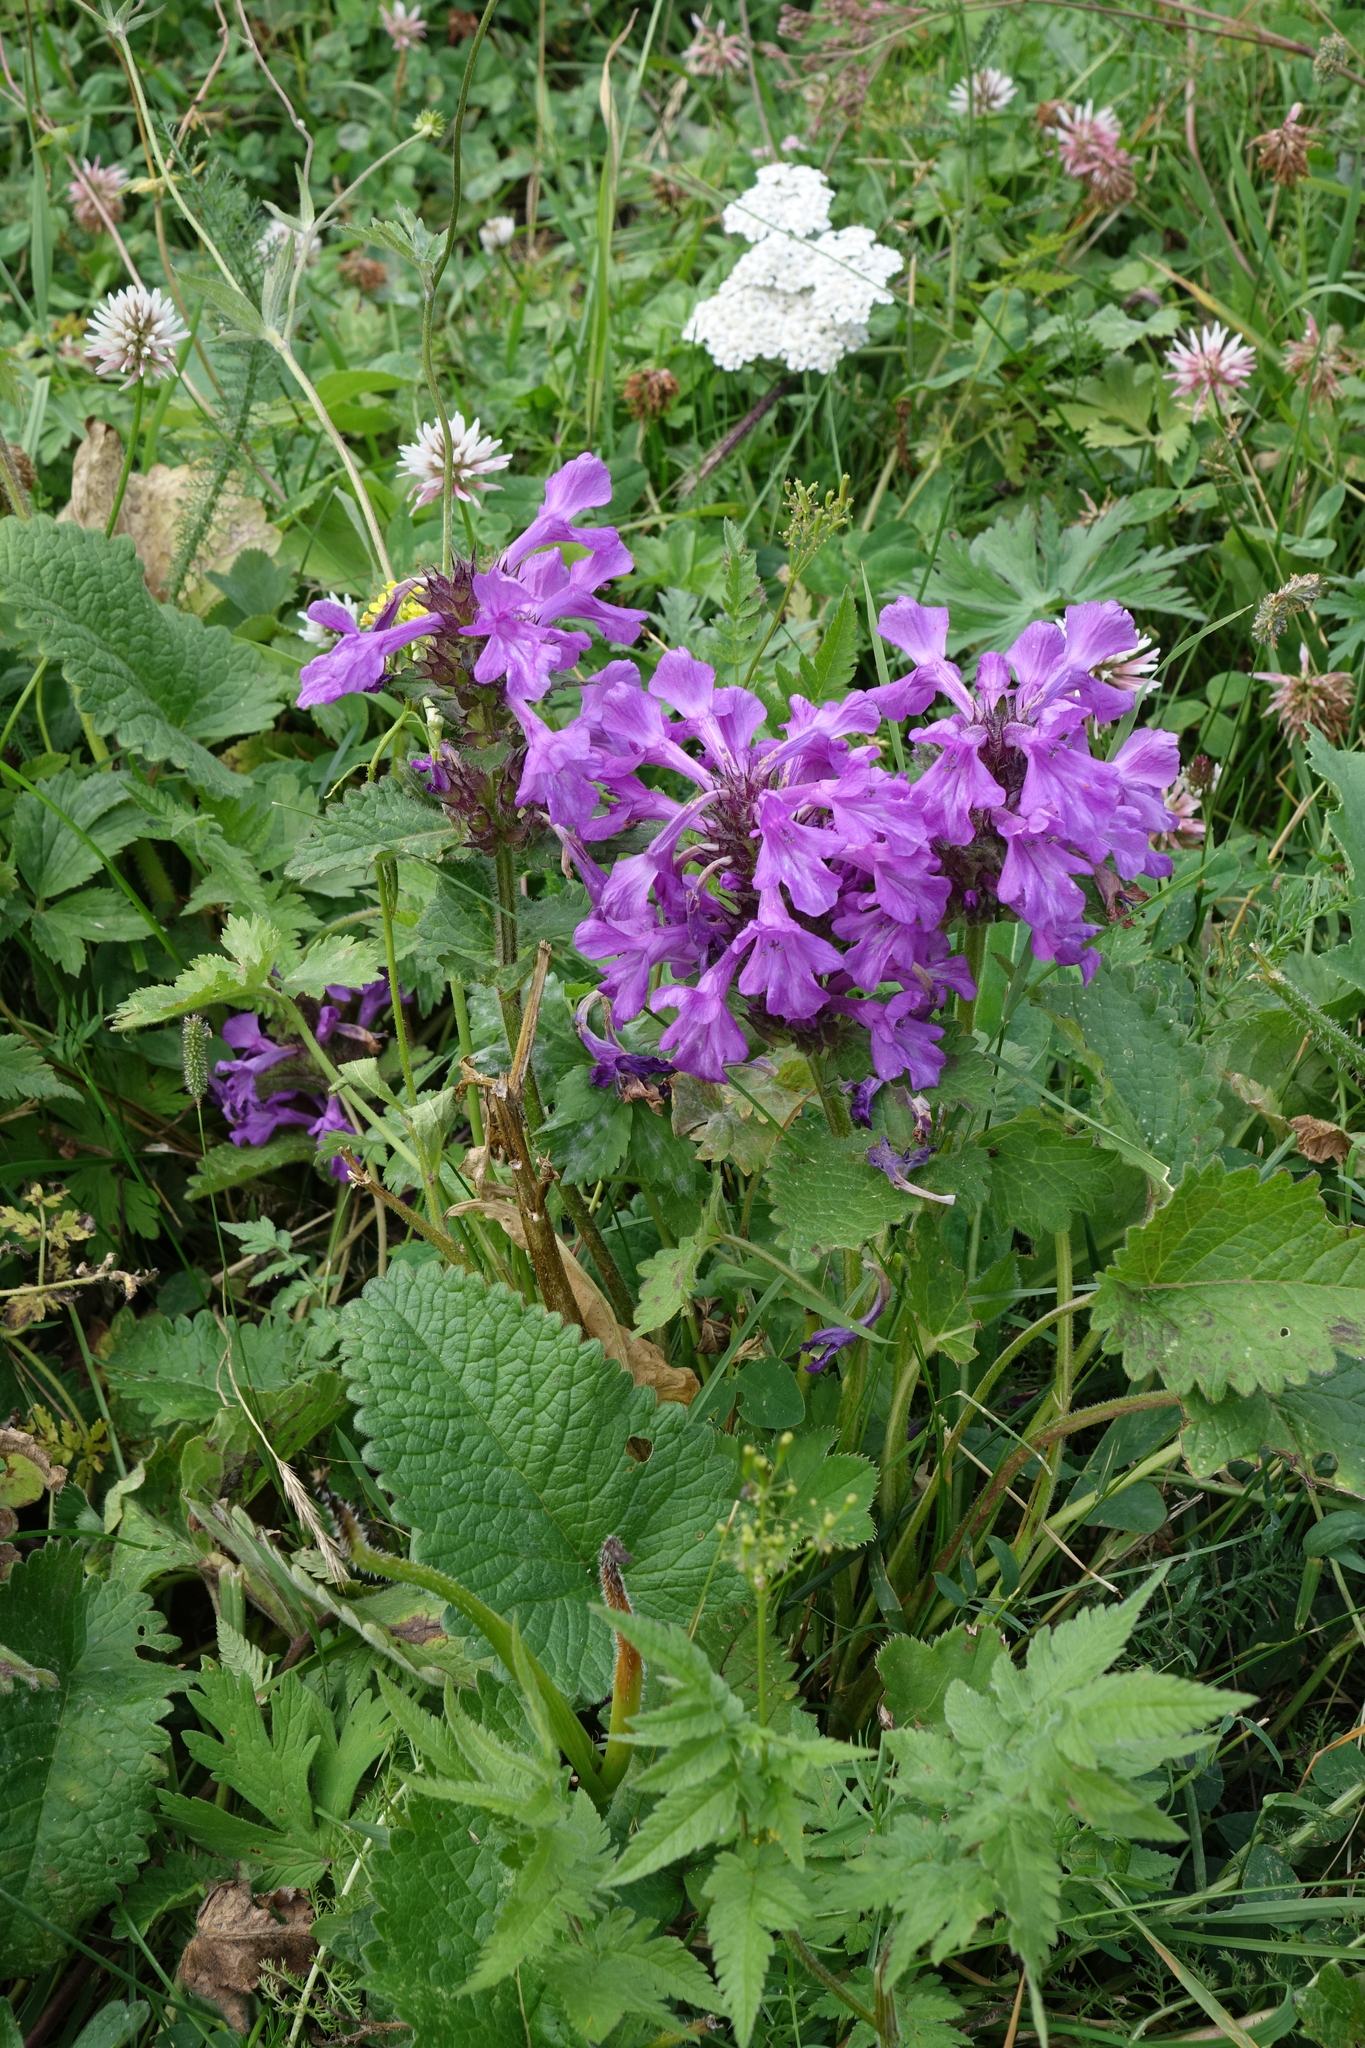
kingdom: Plantae
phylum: Tracheophyta
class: Magnoliopsida
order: Lamiales
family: Lamiaceae
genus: Betonica
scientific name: Betonica macrantha
